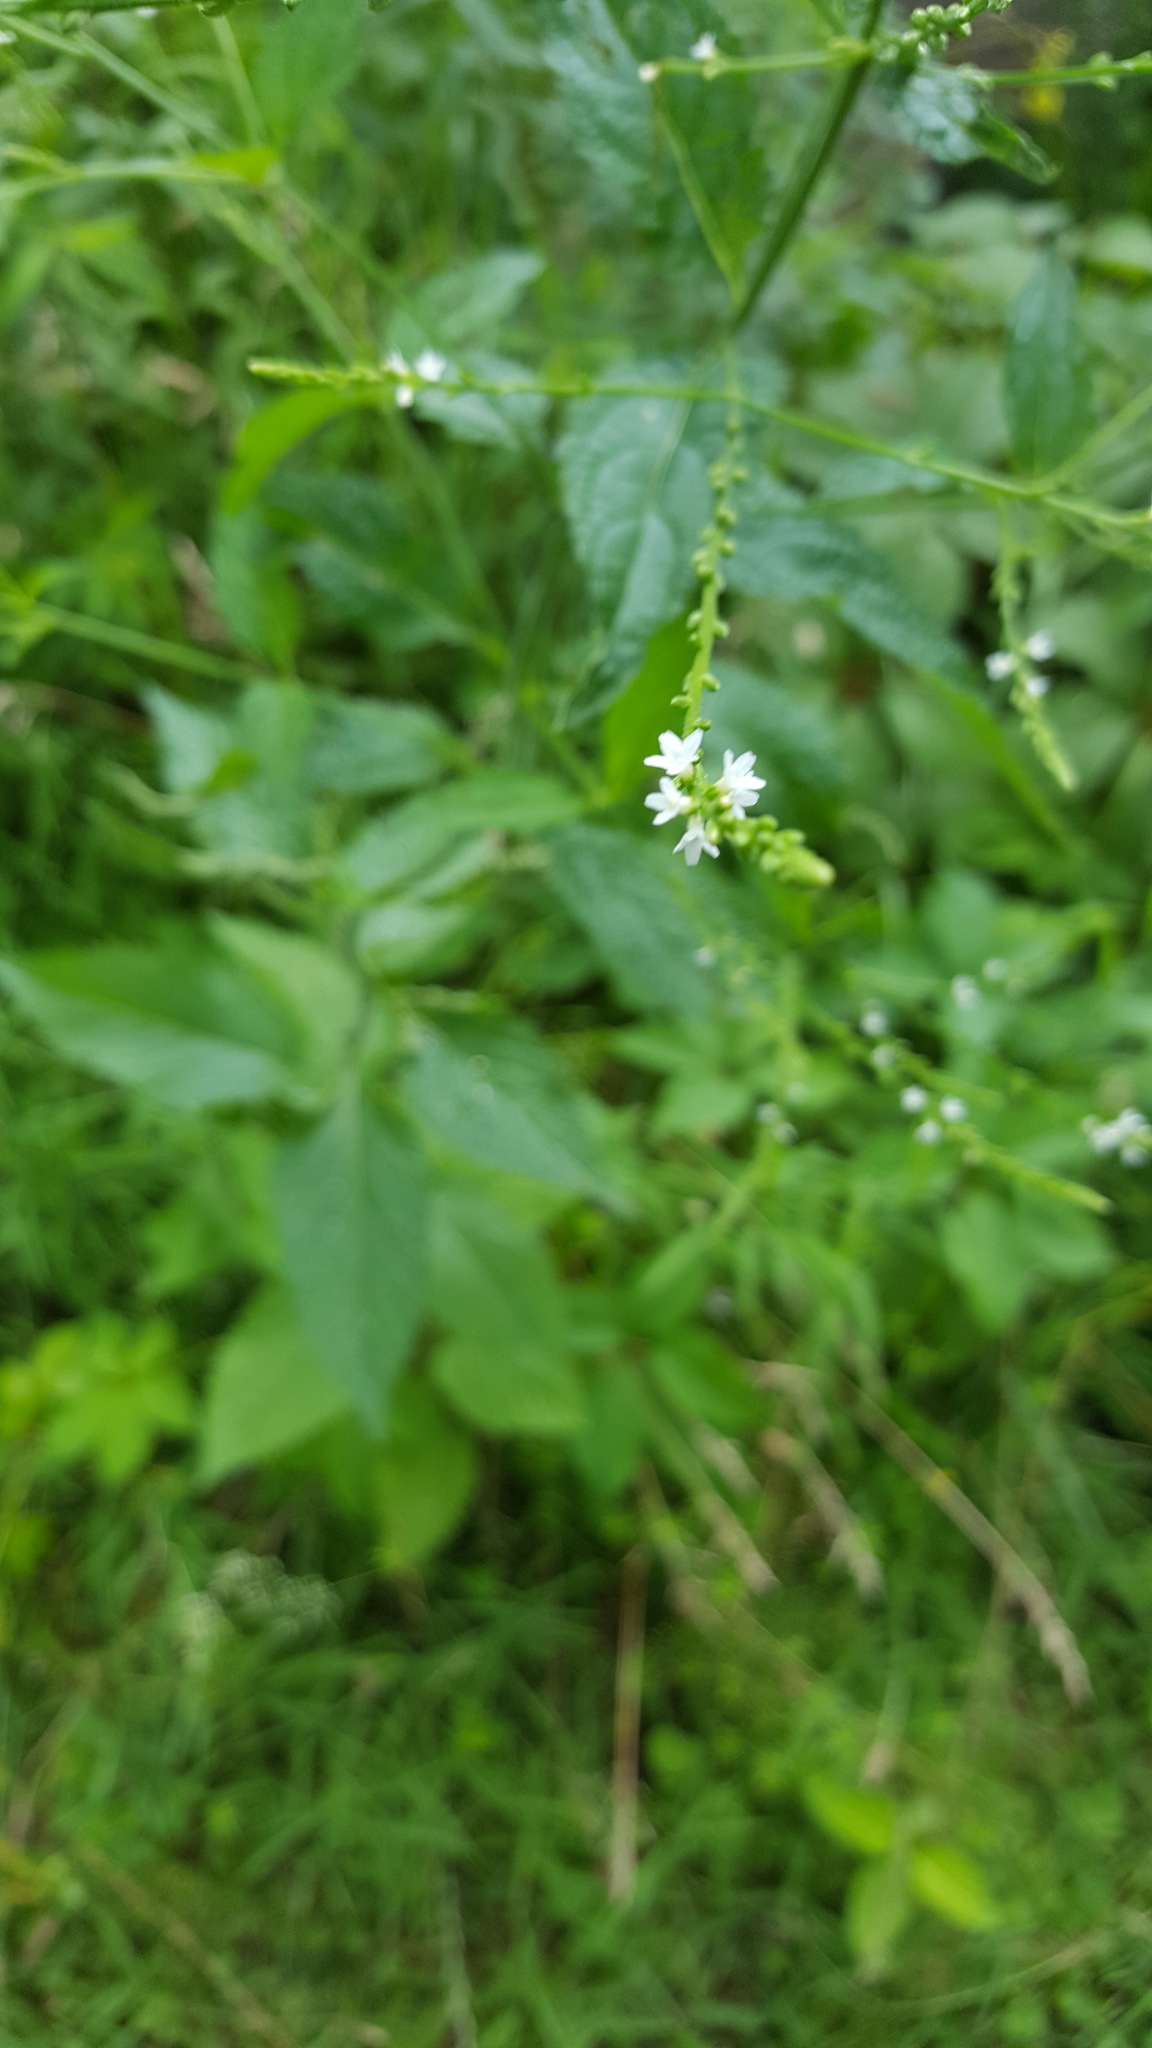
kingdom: Plantae
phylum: Tracheophyta
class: Magnoliopsida
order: Lamiales
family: Verbenaceae
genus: Verbena
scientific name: Verbena urticifolia
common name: Nettle-leaved vervain
